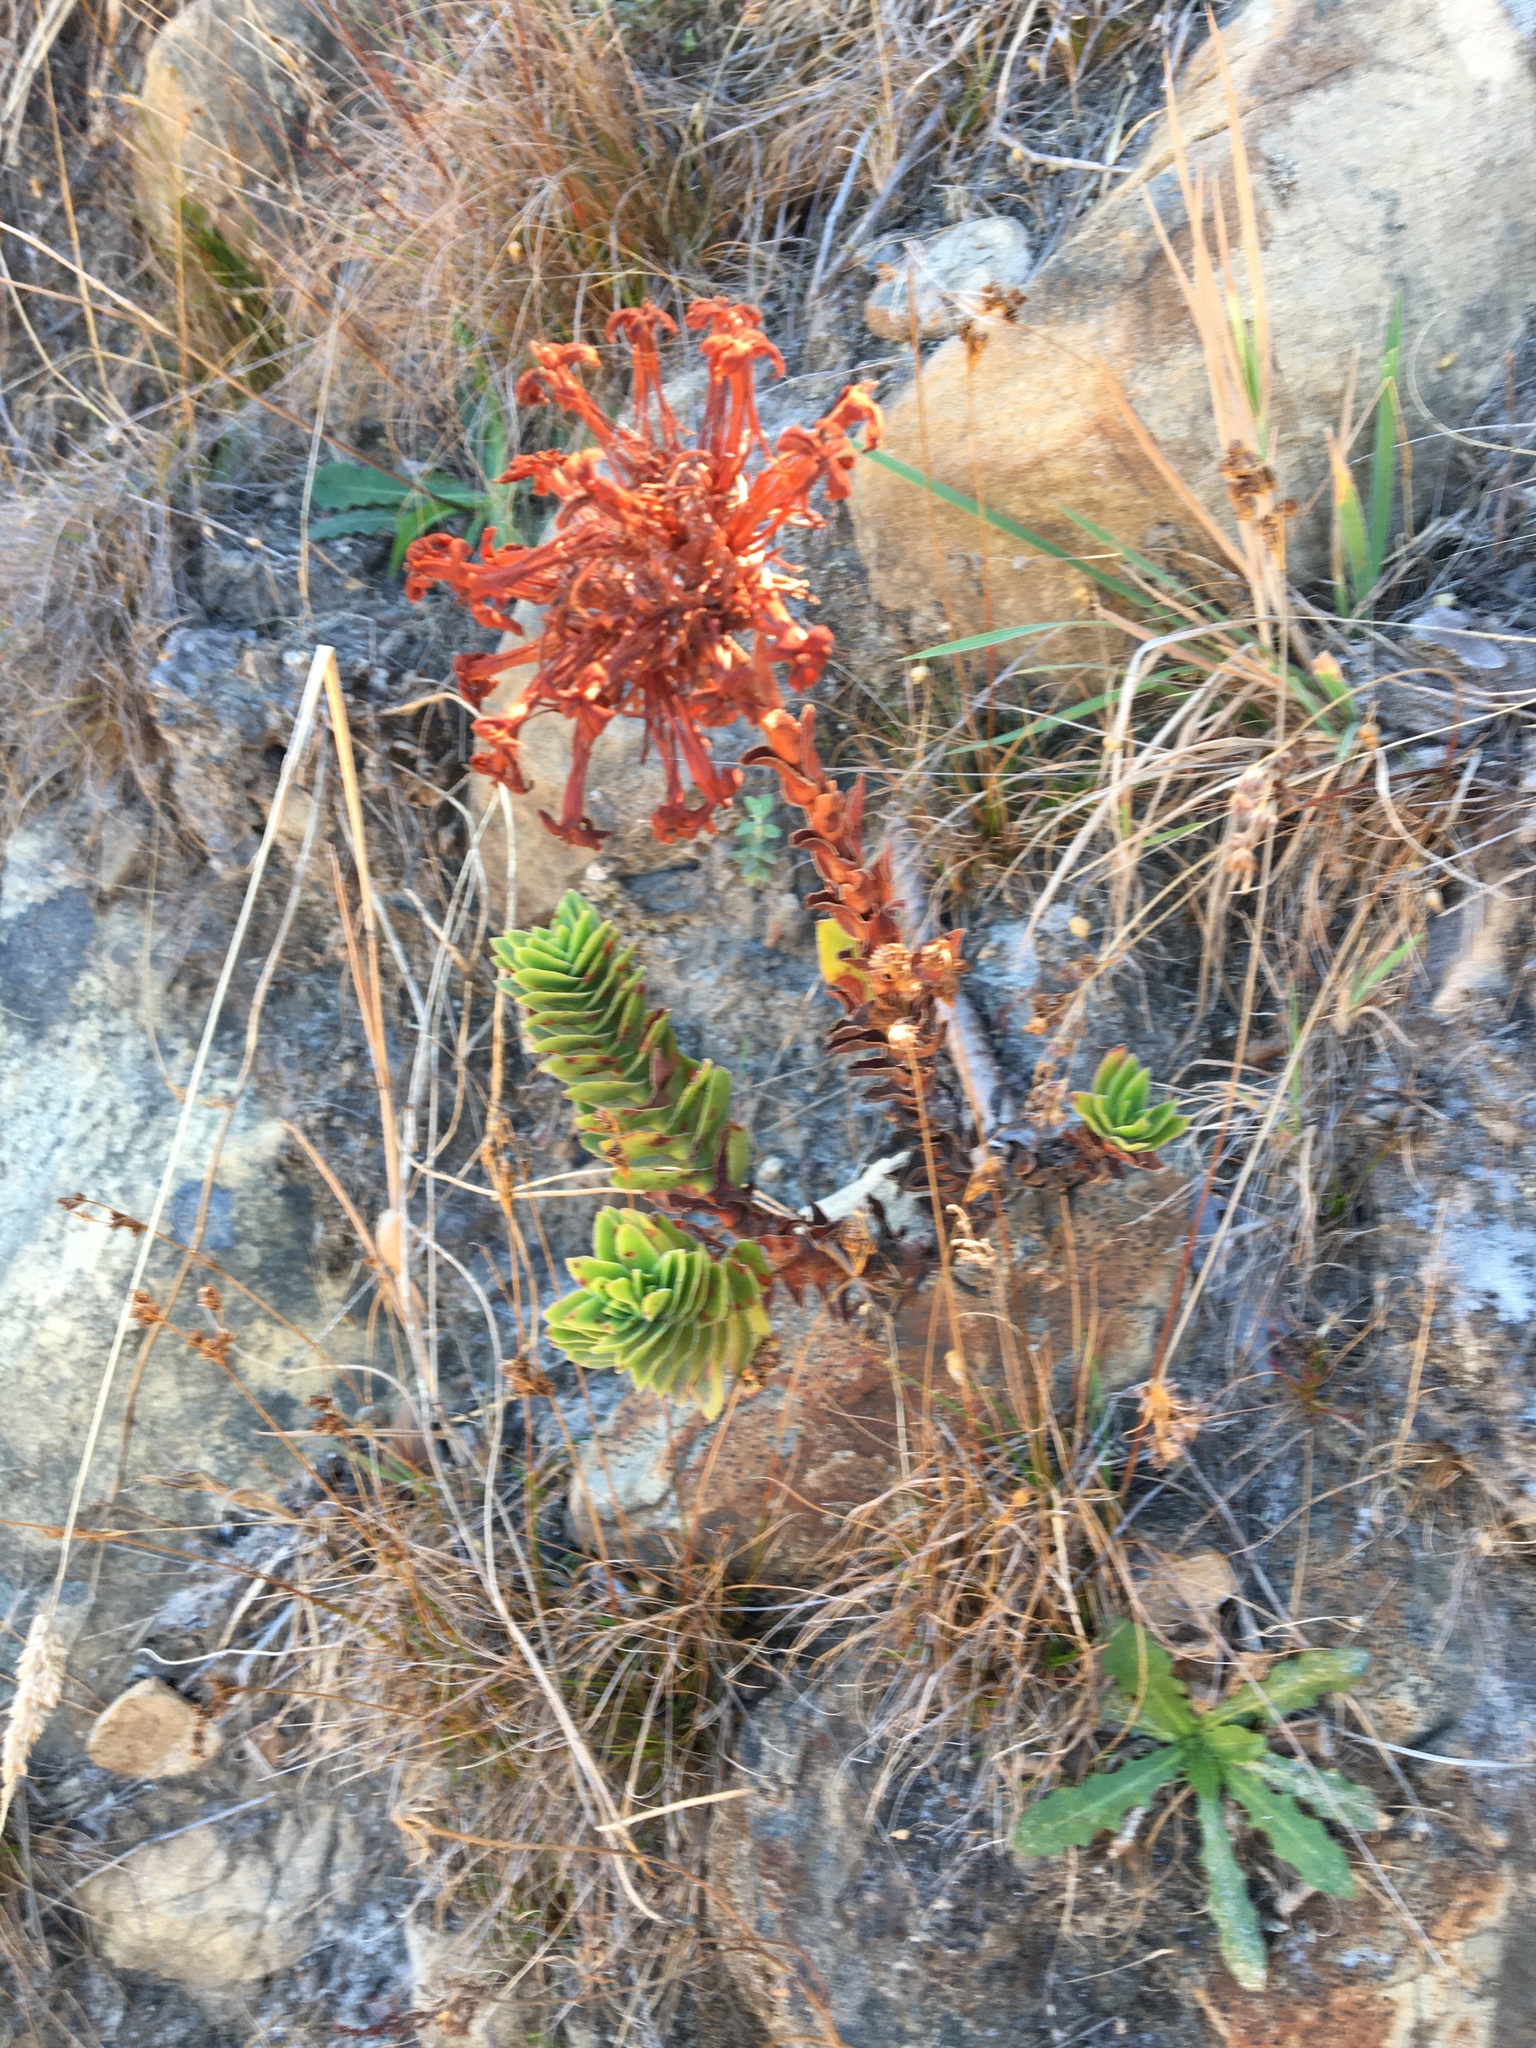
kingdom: Plantae
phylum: Tracheophyta
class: Magnoliopsida
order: Saxifragales
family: Crassulaceae
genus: Crassula
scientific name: Crassula coccinea
